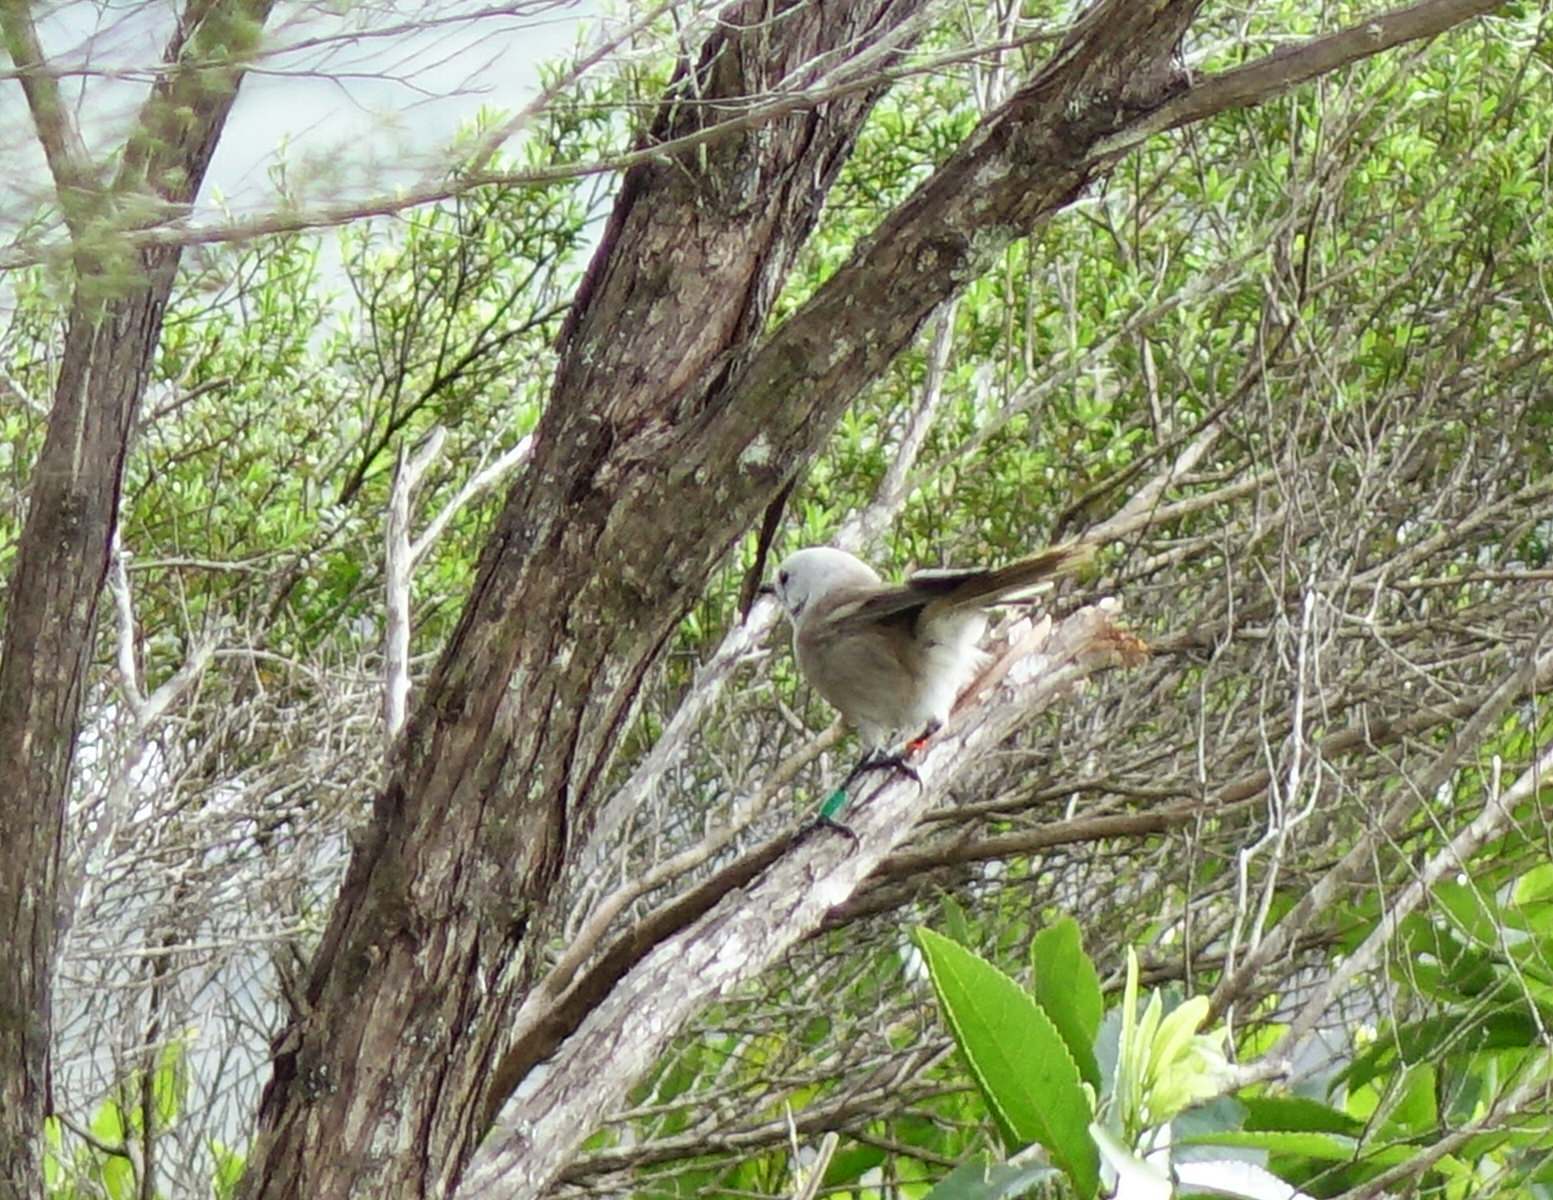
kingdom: Animalia
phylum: Chordata
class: Aves
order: Passeriformes
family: Acanthizidae
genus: Mohoua
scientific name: Mohoua albicilla
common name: Whitehead
